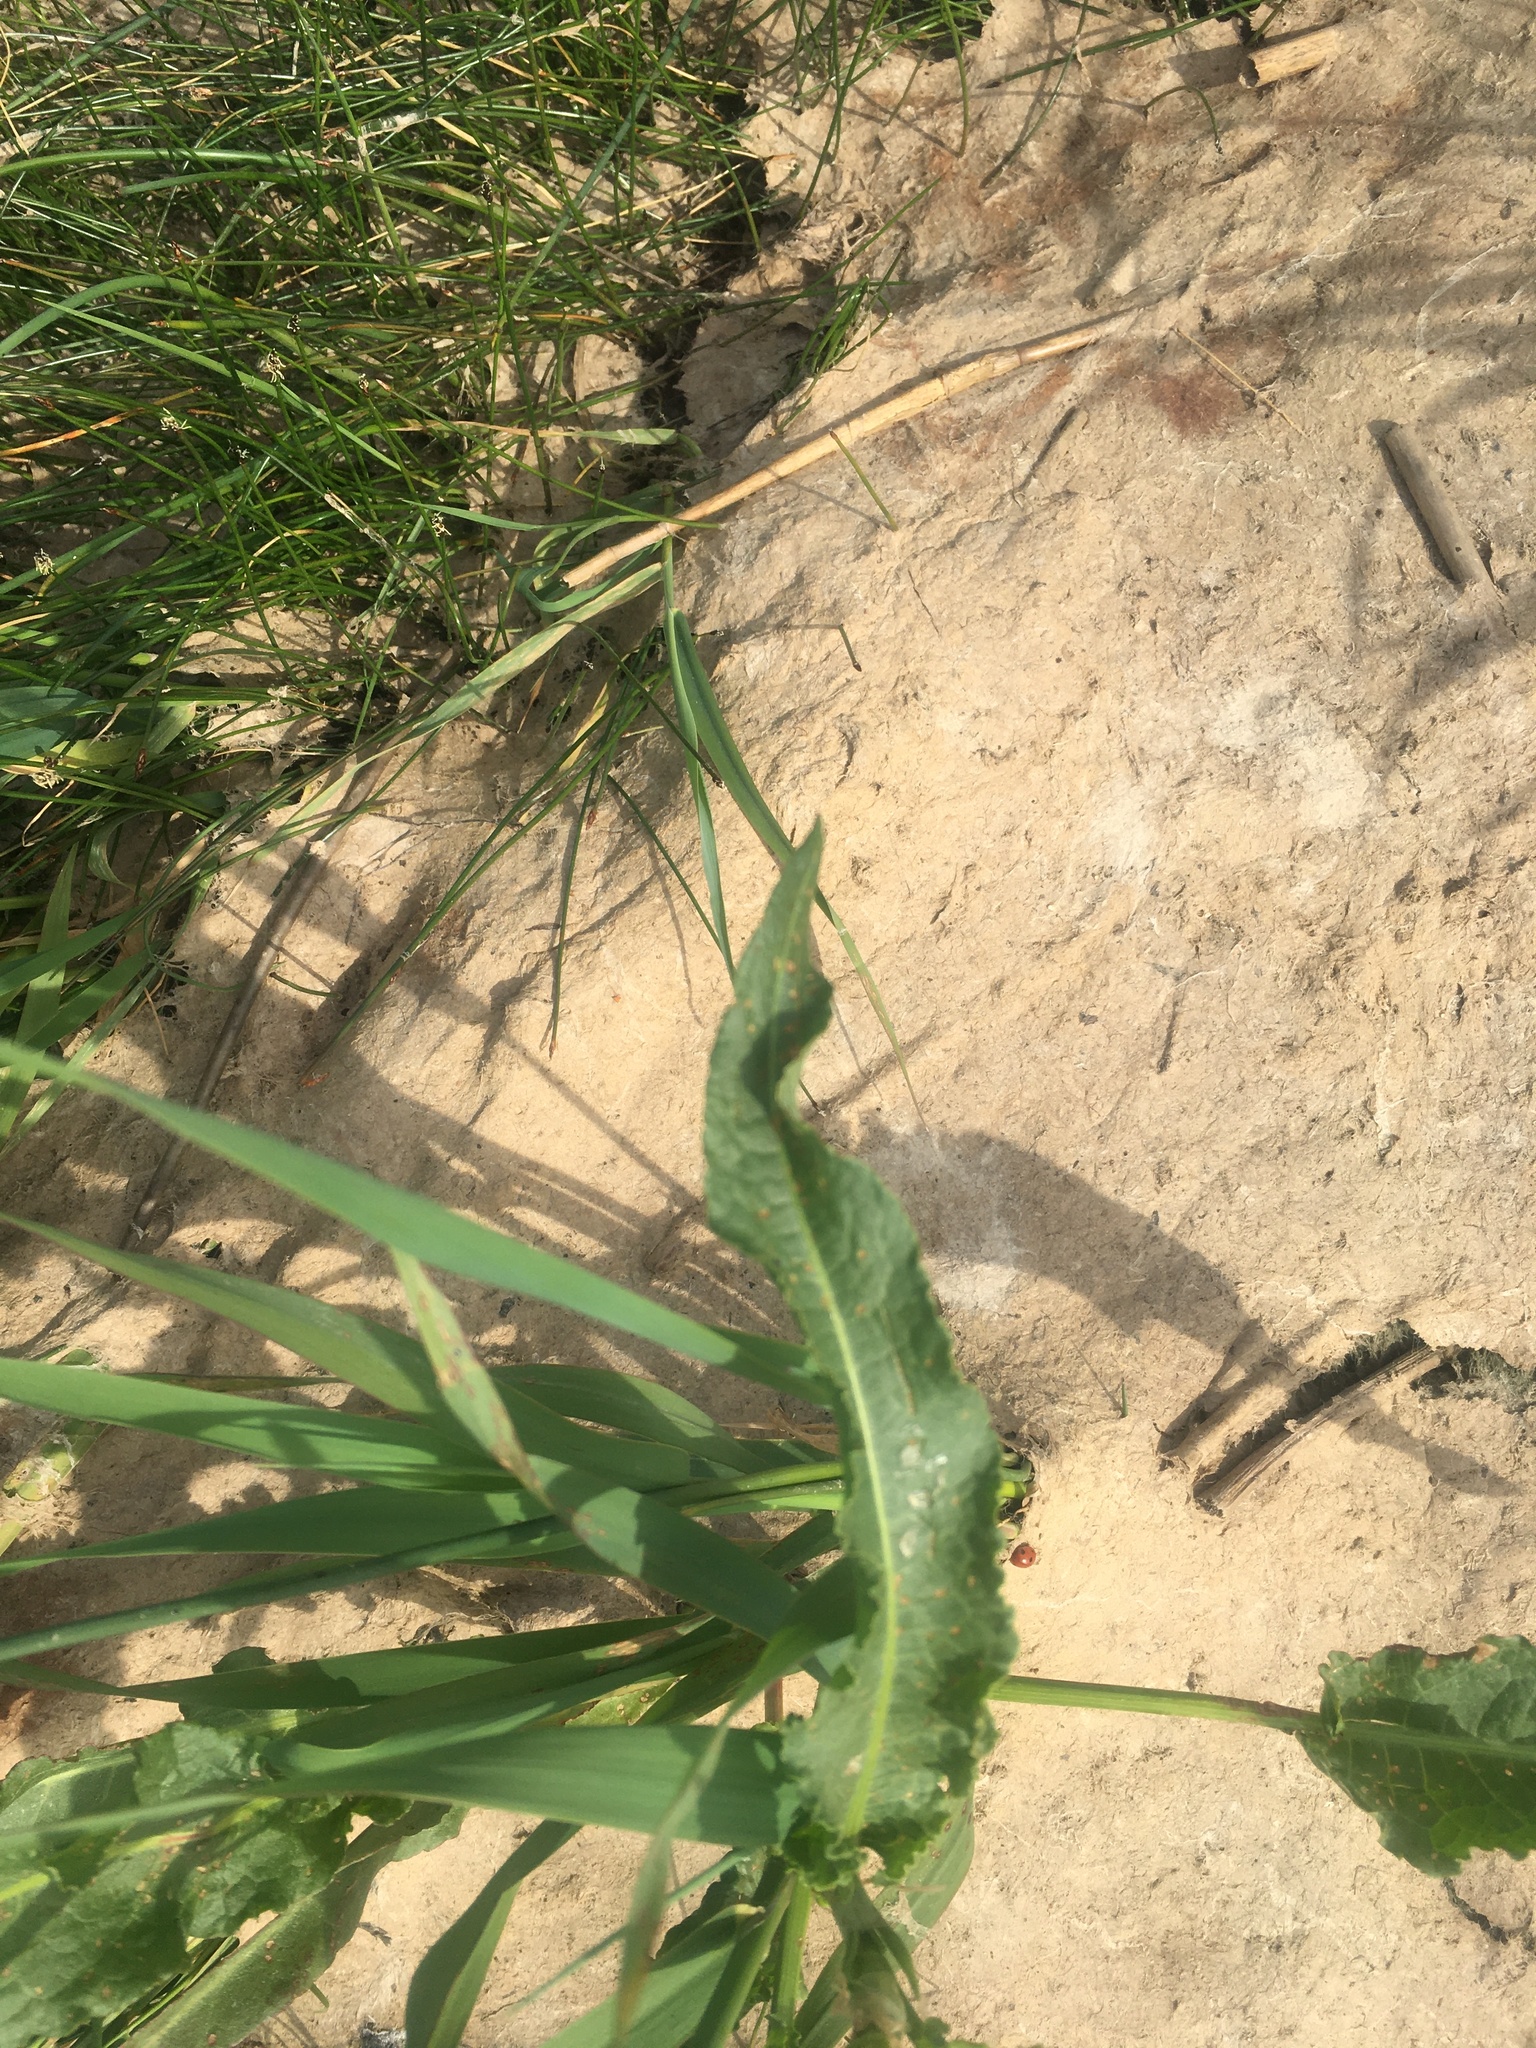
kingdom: Plantae
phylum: Tracheophyta
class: Magnoliopsida
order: Caryophyllales
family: Polygonaceae
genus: Rumex
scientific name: Rumex crispus
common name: Curled dock
